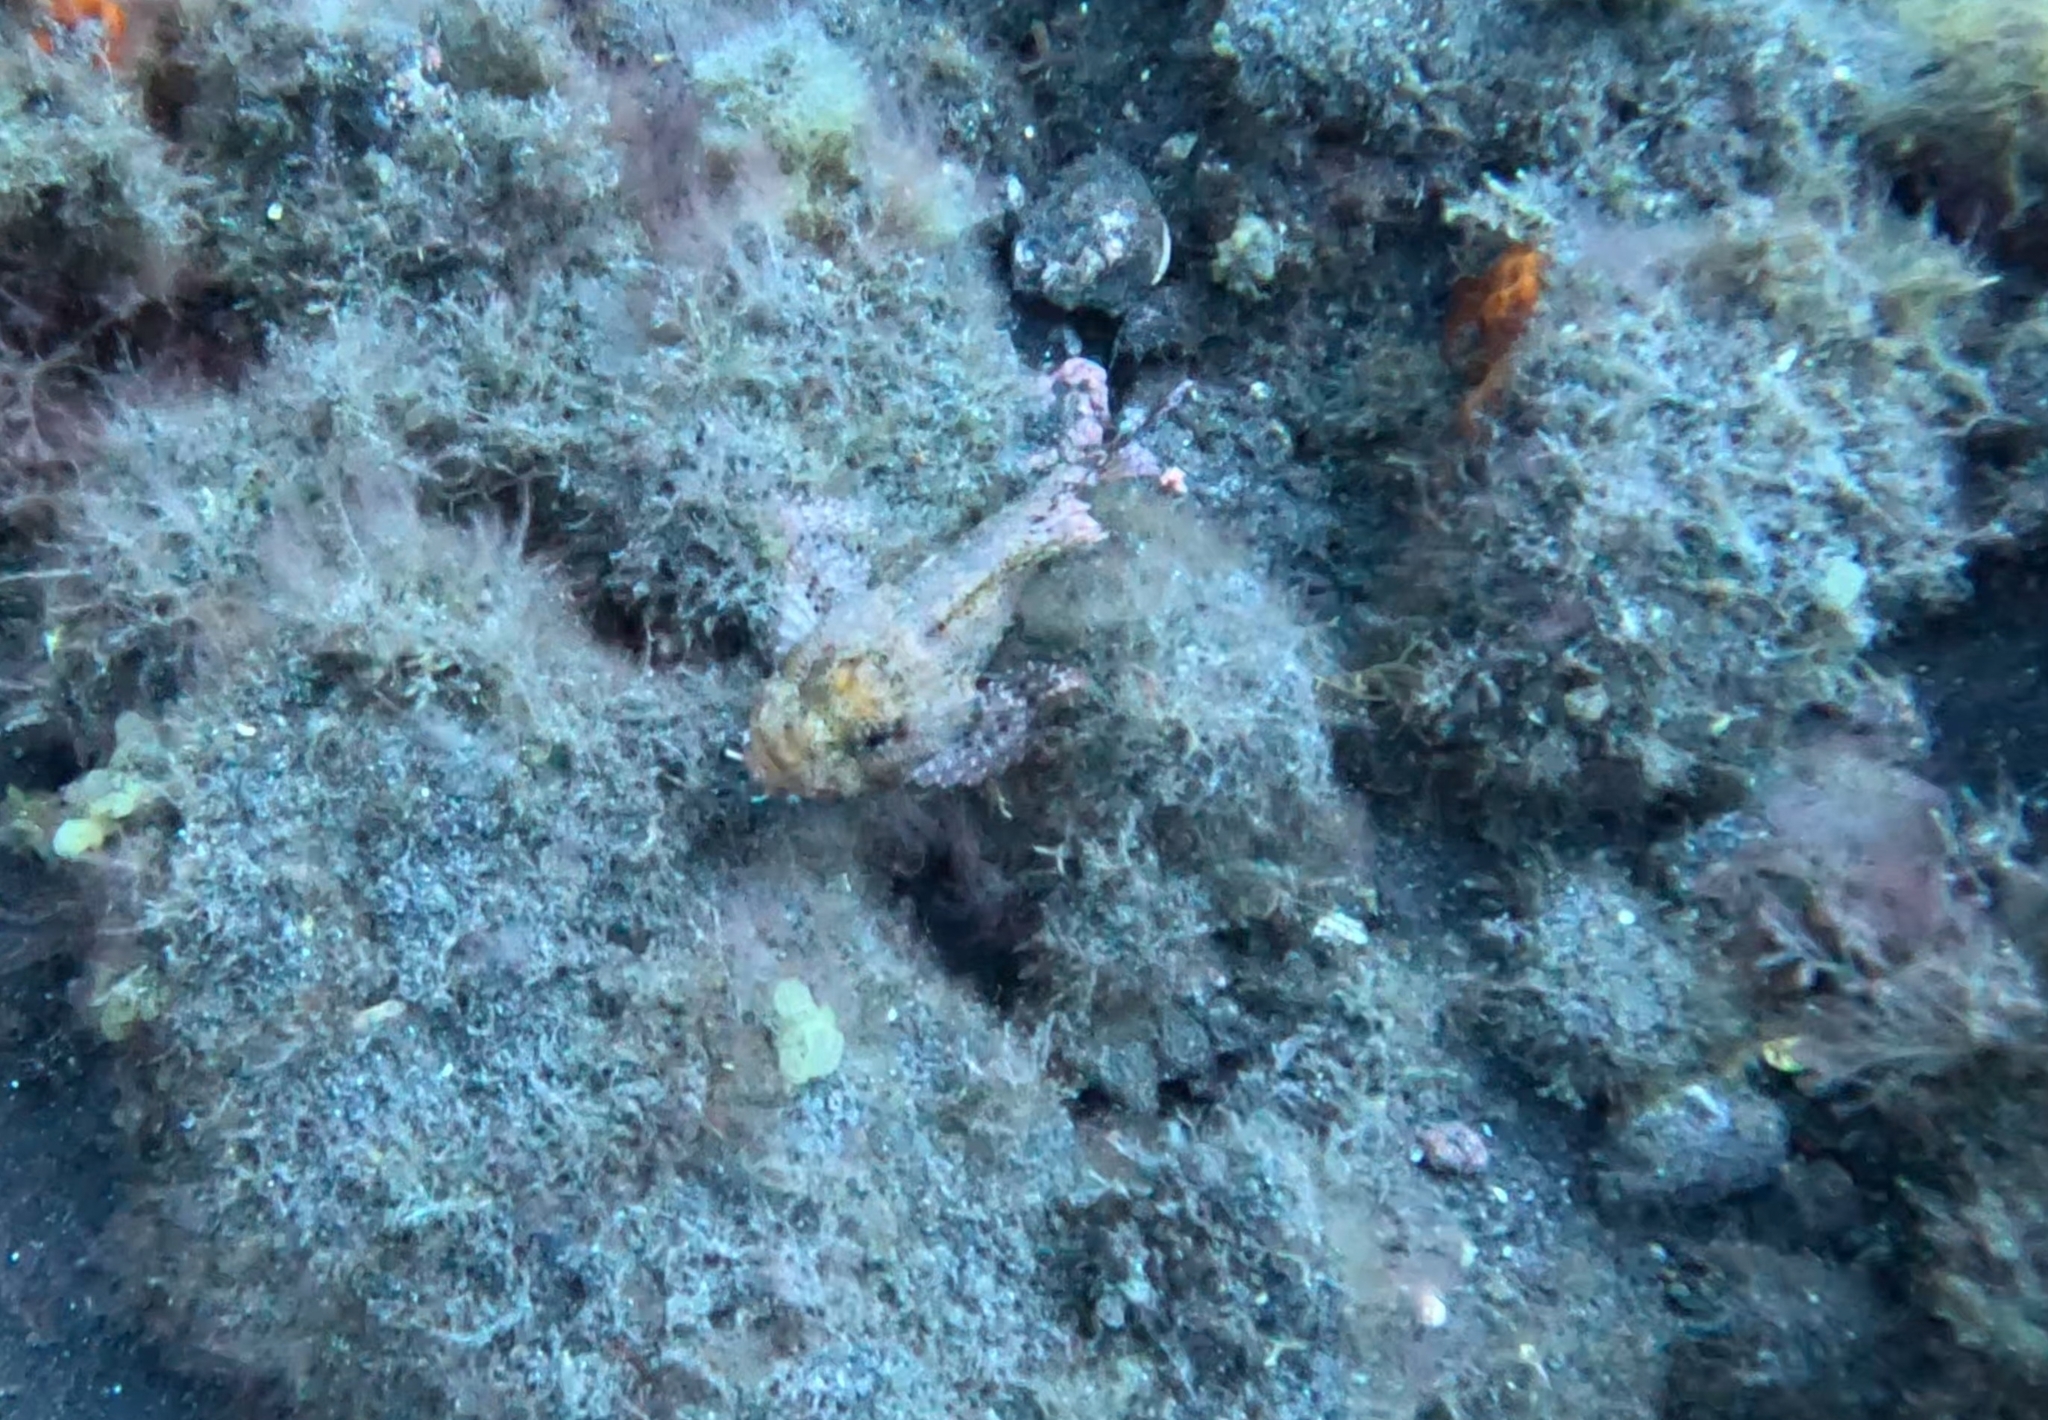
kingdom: Animalia
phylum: Chordata
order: Scorpaeniformes
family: Scorpaenidae
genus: Scorpaena
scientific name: Scorpaena maderensis
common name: Madeira rockfish
